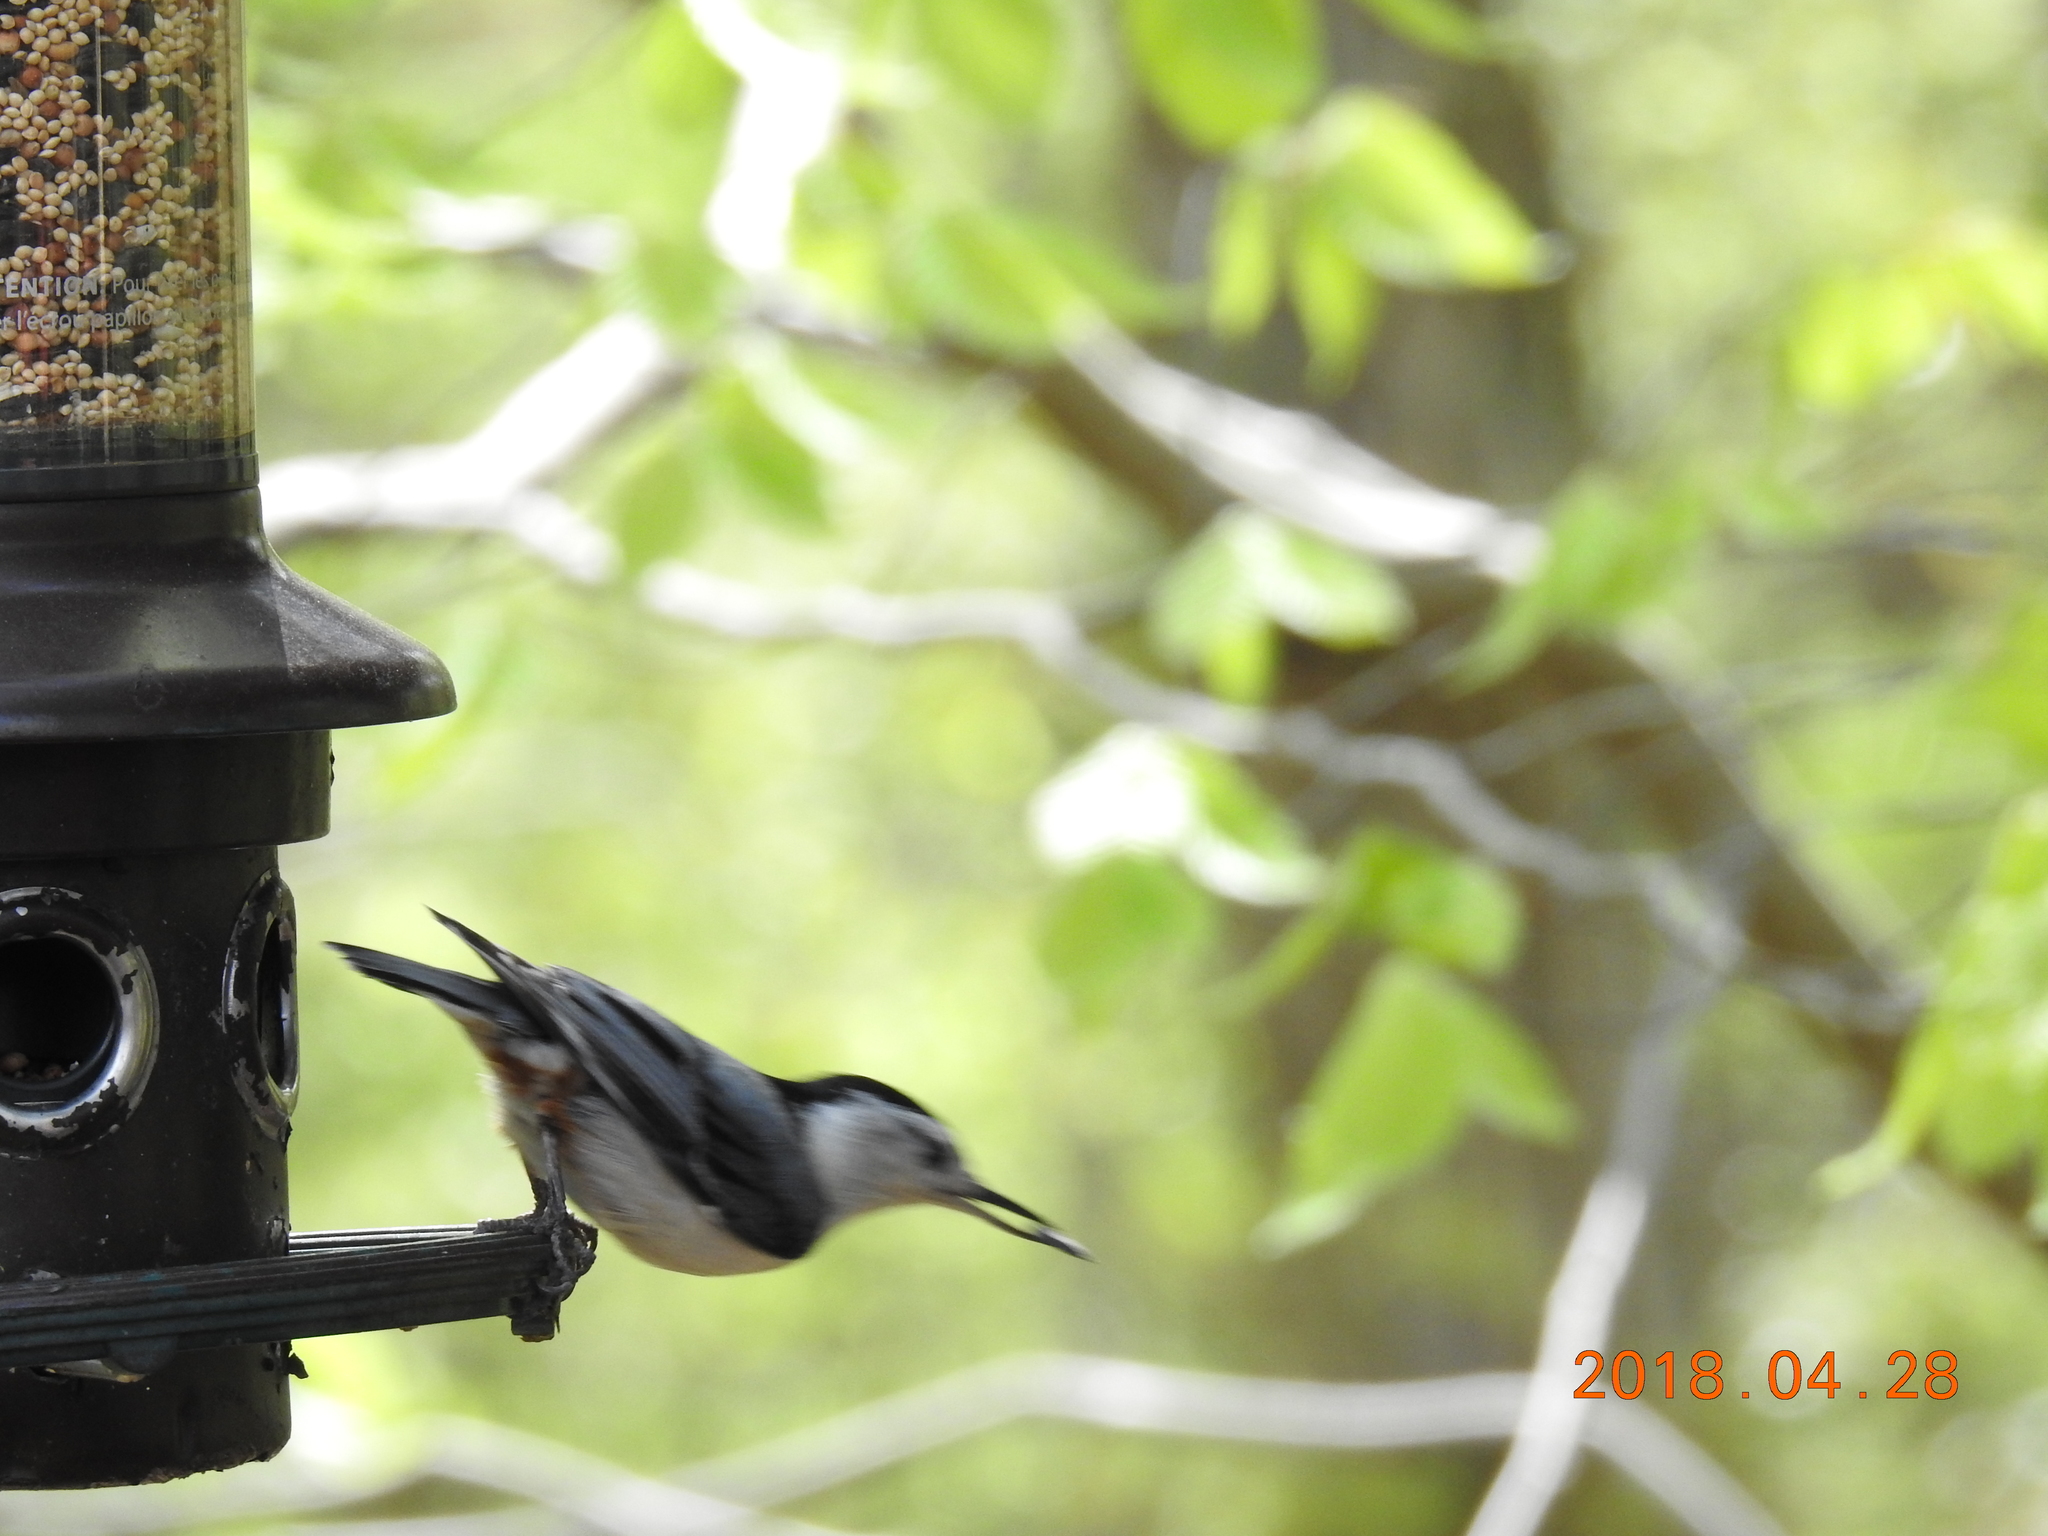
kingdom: Animalia
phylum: Chordata
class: Aves
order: Passeriformes
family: Sittidae
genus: Sitta
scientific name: Sitta carolinensis
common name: White-breasted nuthatch
